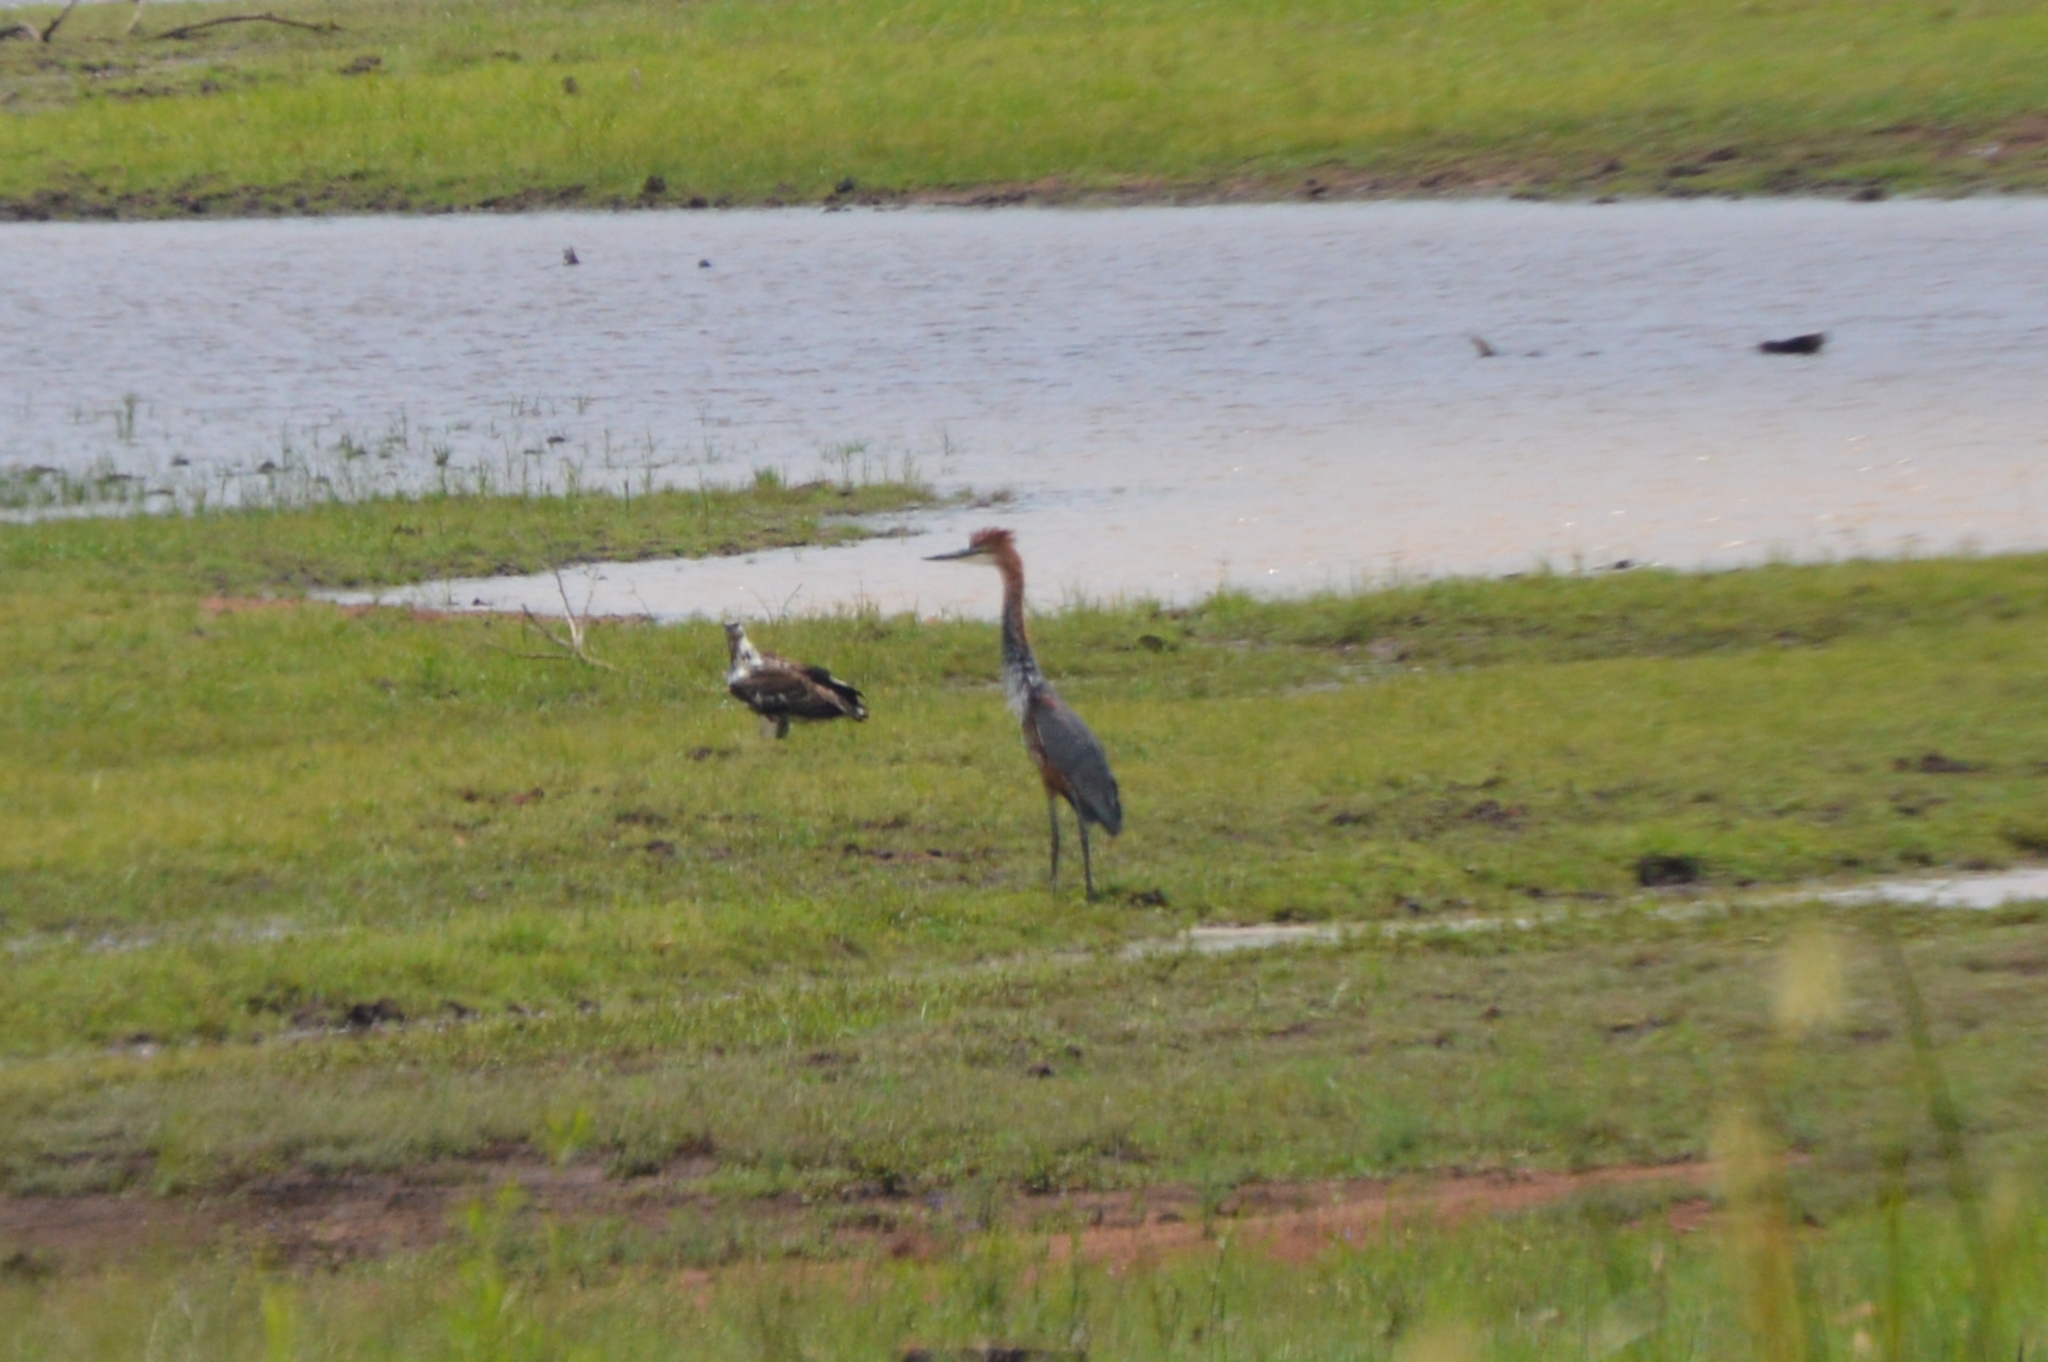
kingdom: Animalia
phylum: Chordata
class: Aves
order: Pelecaniformes
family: Ardeidae
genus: Ardea
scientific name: Ardea goliath
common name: Goliath heron
